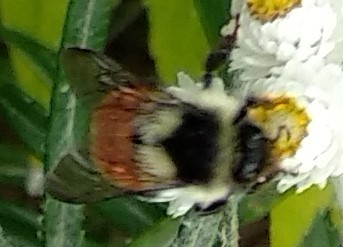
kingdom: Animalia
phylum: Arthropoda
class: Insecta
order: Hymenoptera
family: Apidae
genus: Bombus
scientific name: Bombus ternarius
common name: Tri-colored bumble bee
